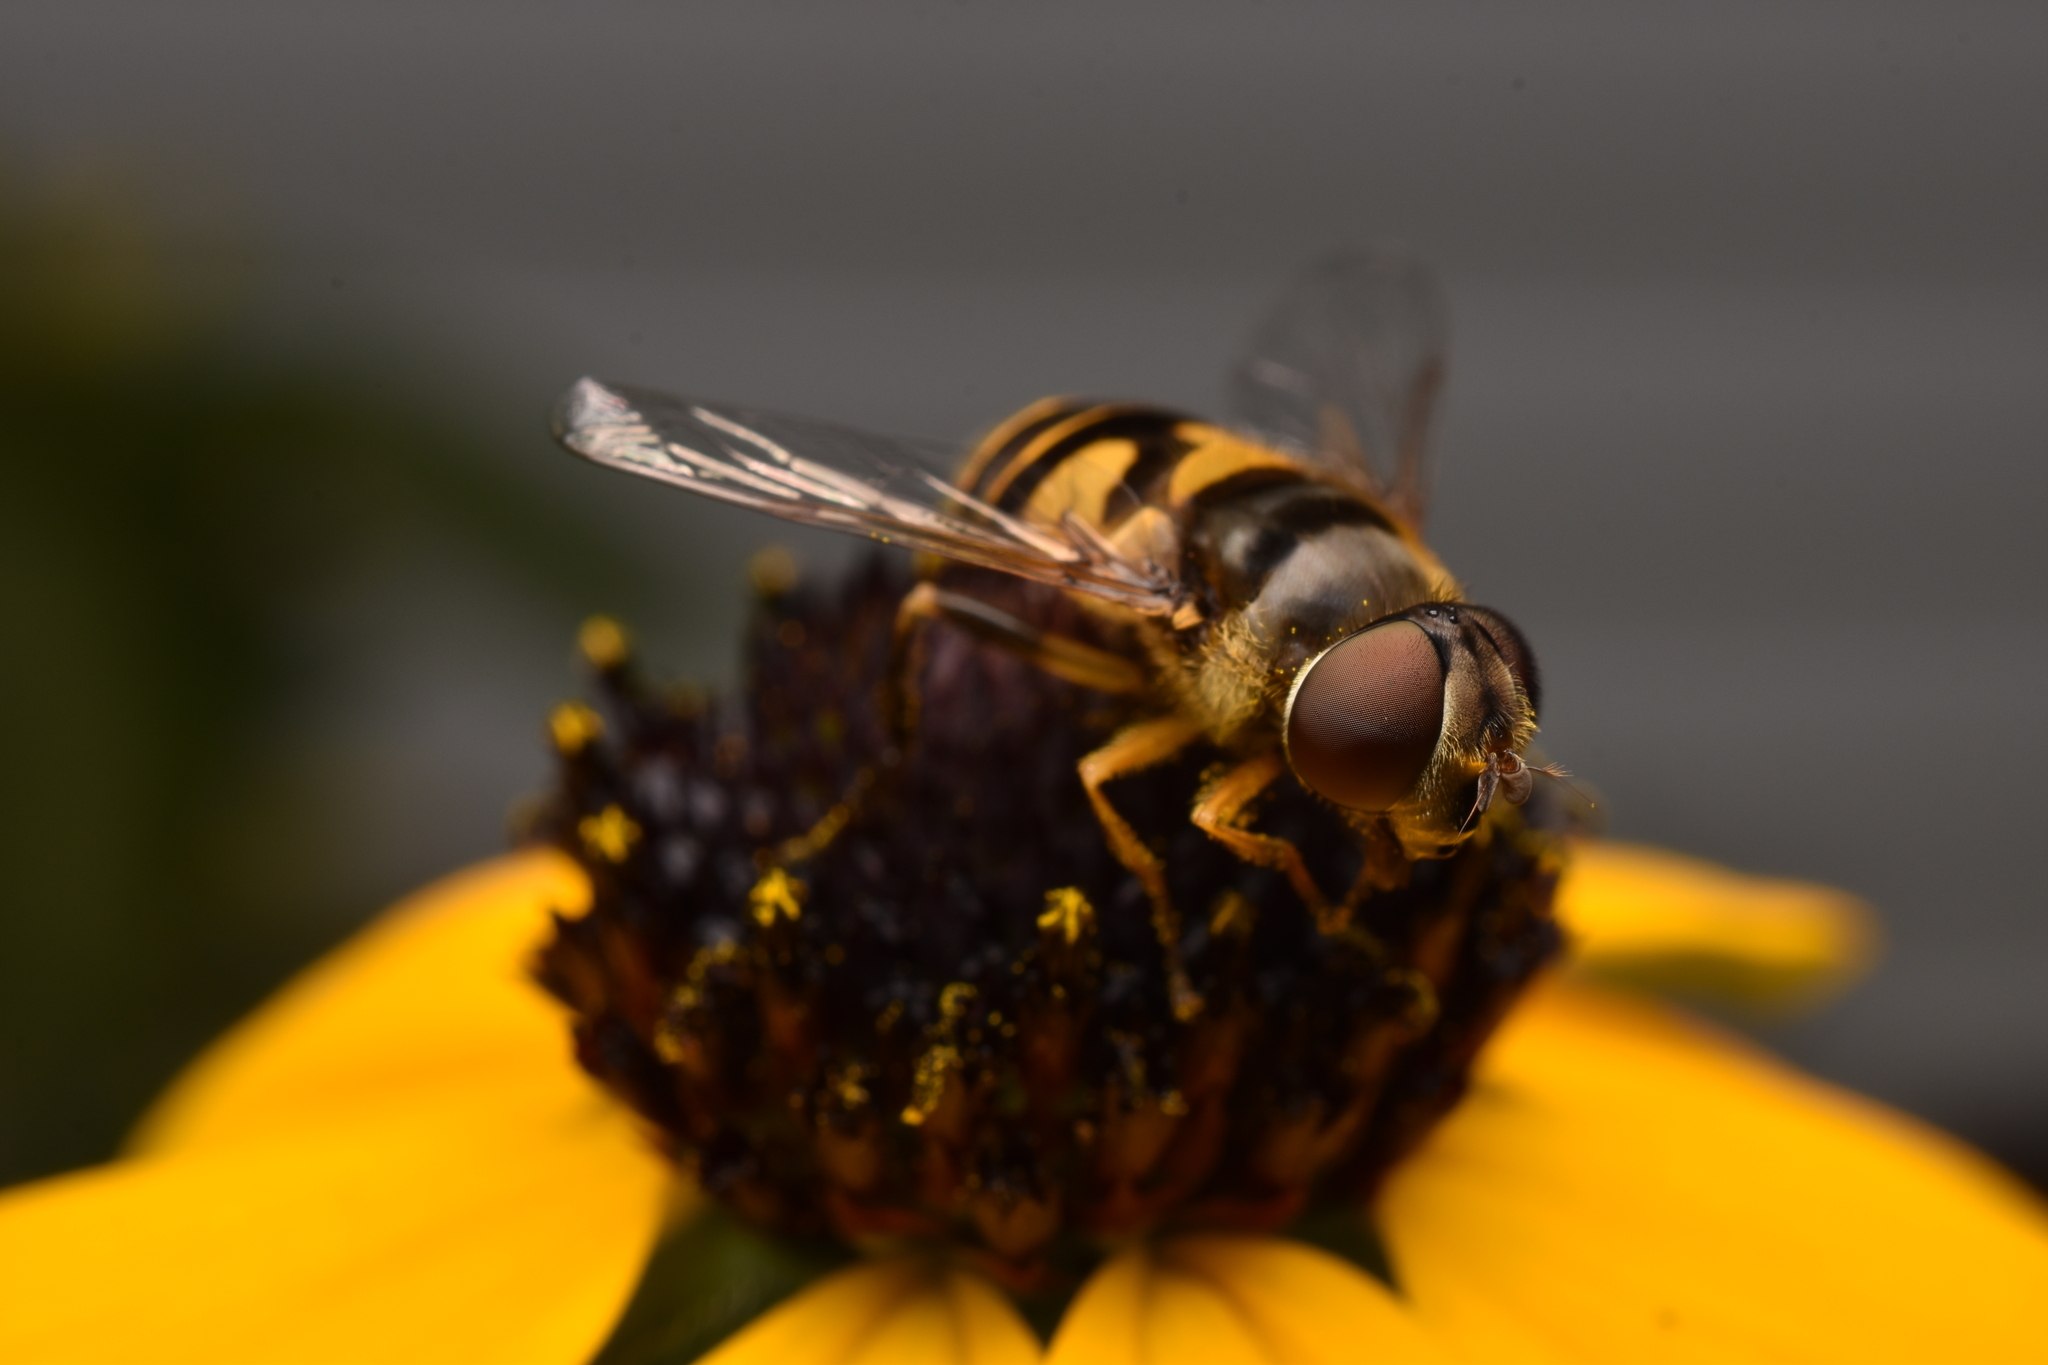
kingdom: Animalia
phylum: Arthropoda
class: Insecta
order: Diptera
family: Syrphidae
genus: Eristalis
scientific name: Eristalis transversa
